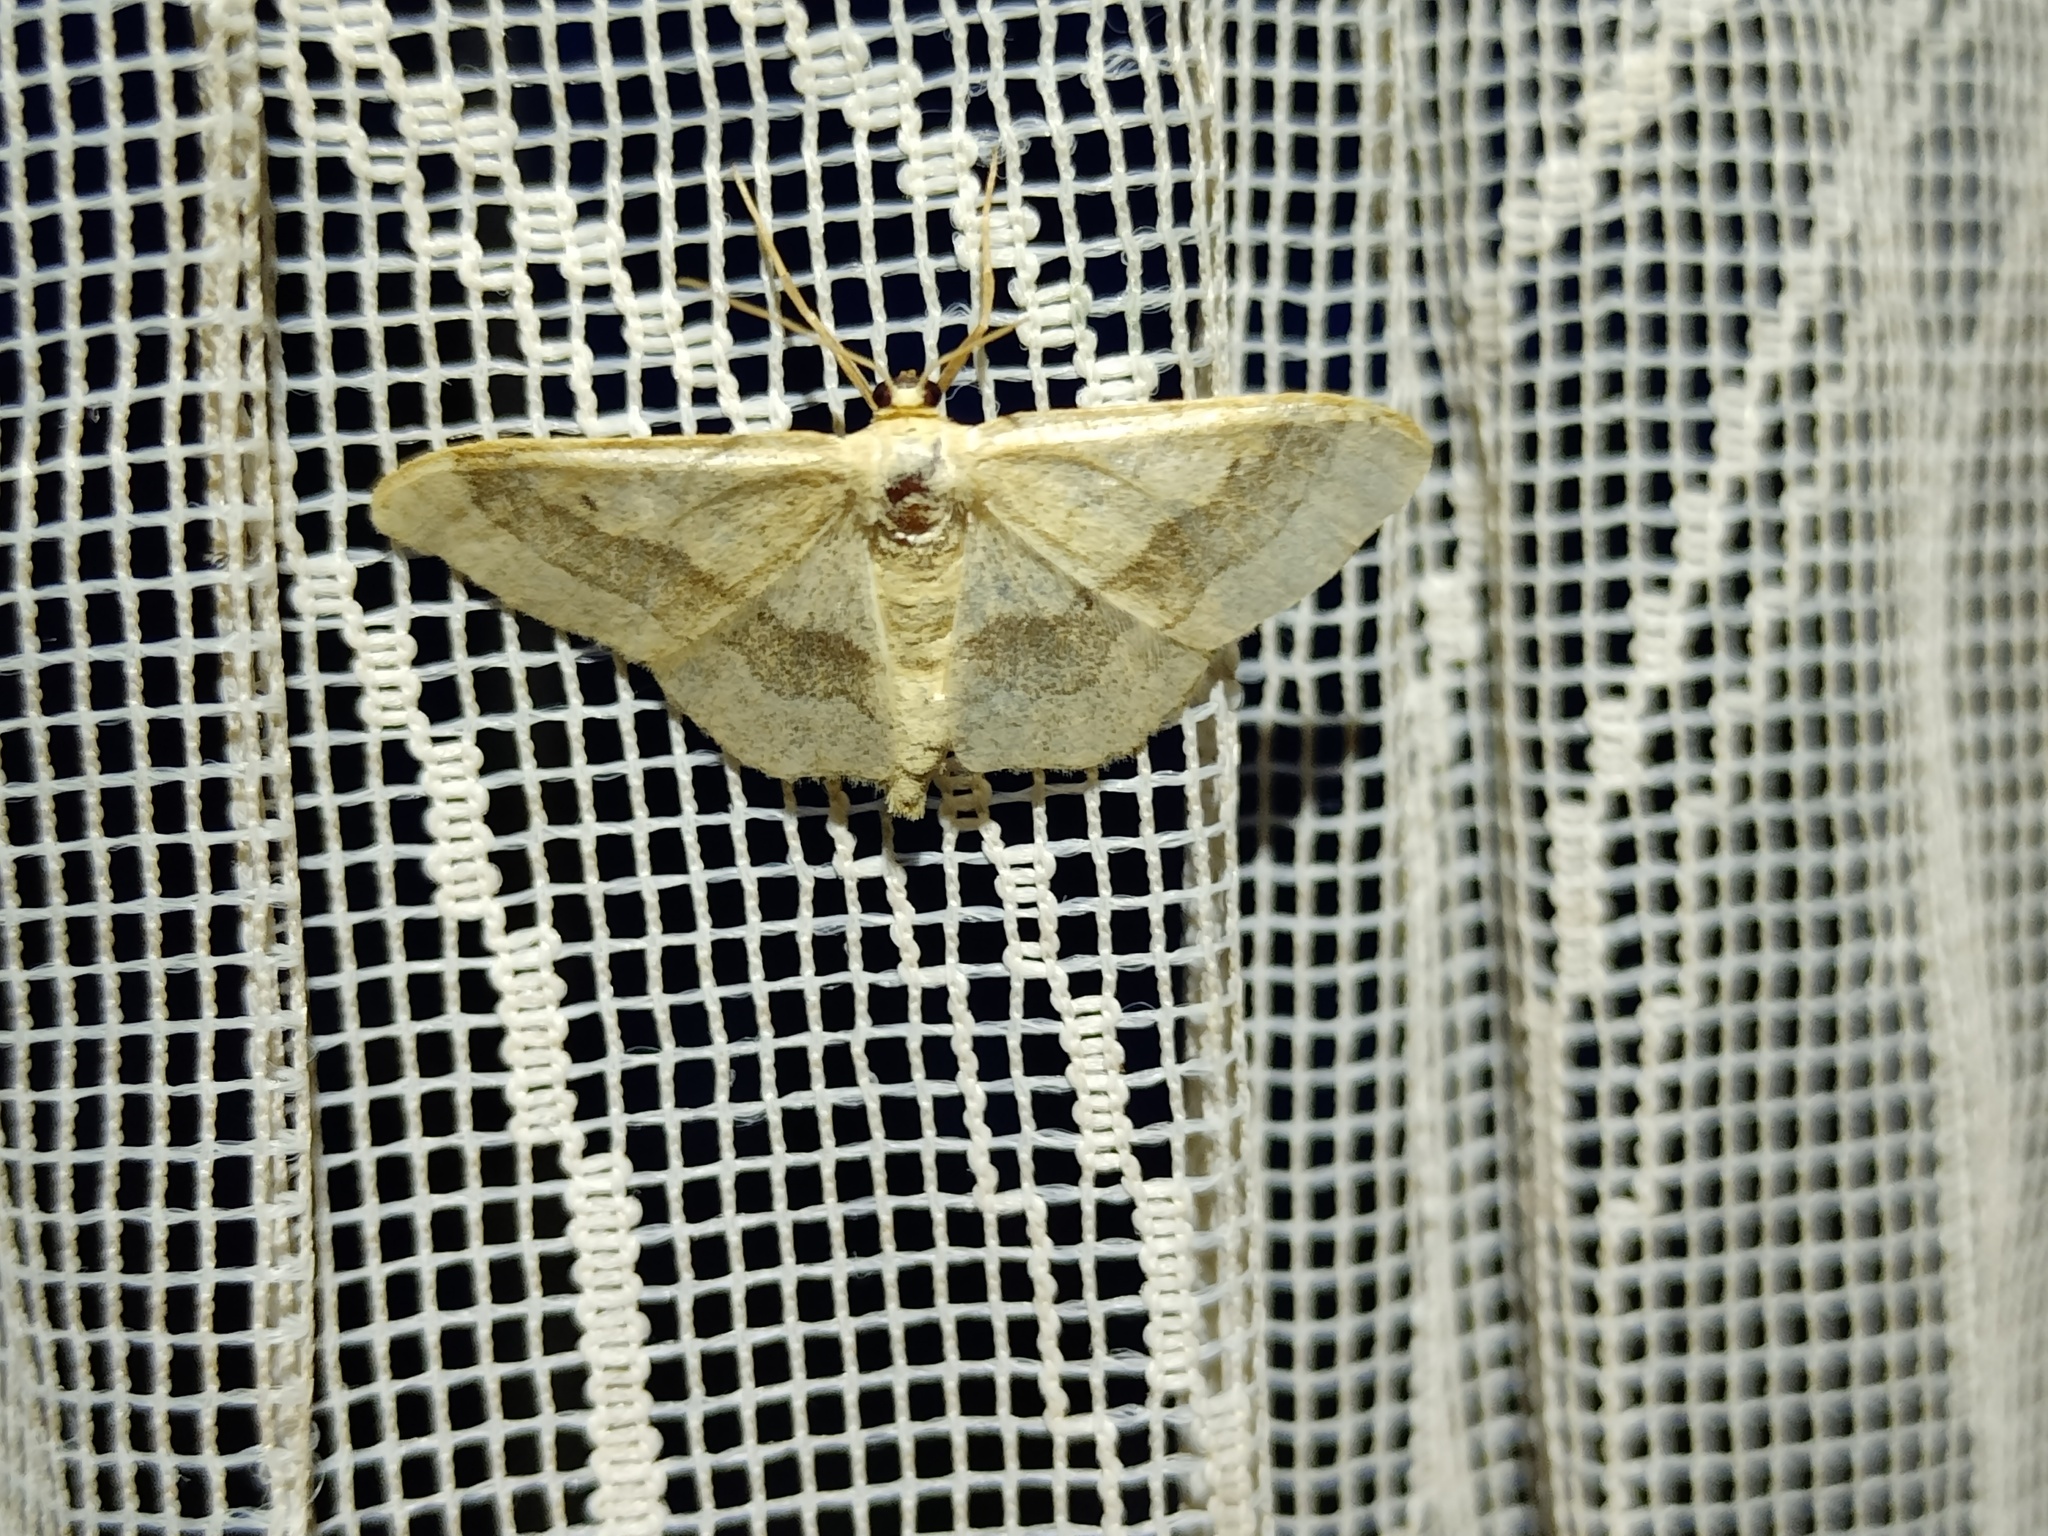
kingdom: Animalia
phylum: Arthropoda
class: Insecta
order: Lepidoptera
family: Geometridae
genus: Idaea
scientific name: Idaea aversata
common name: Riband wave
